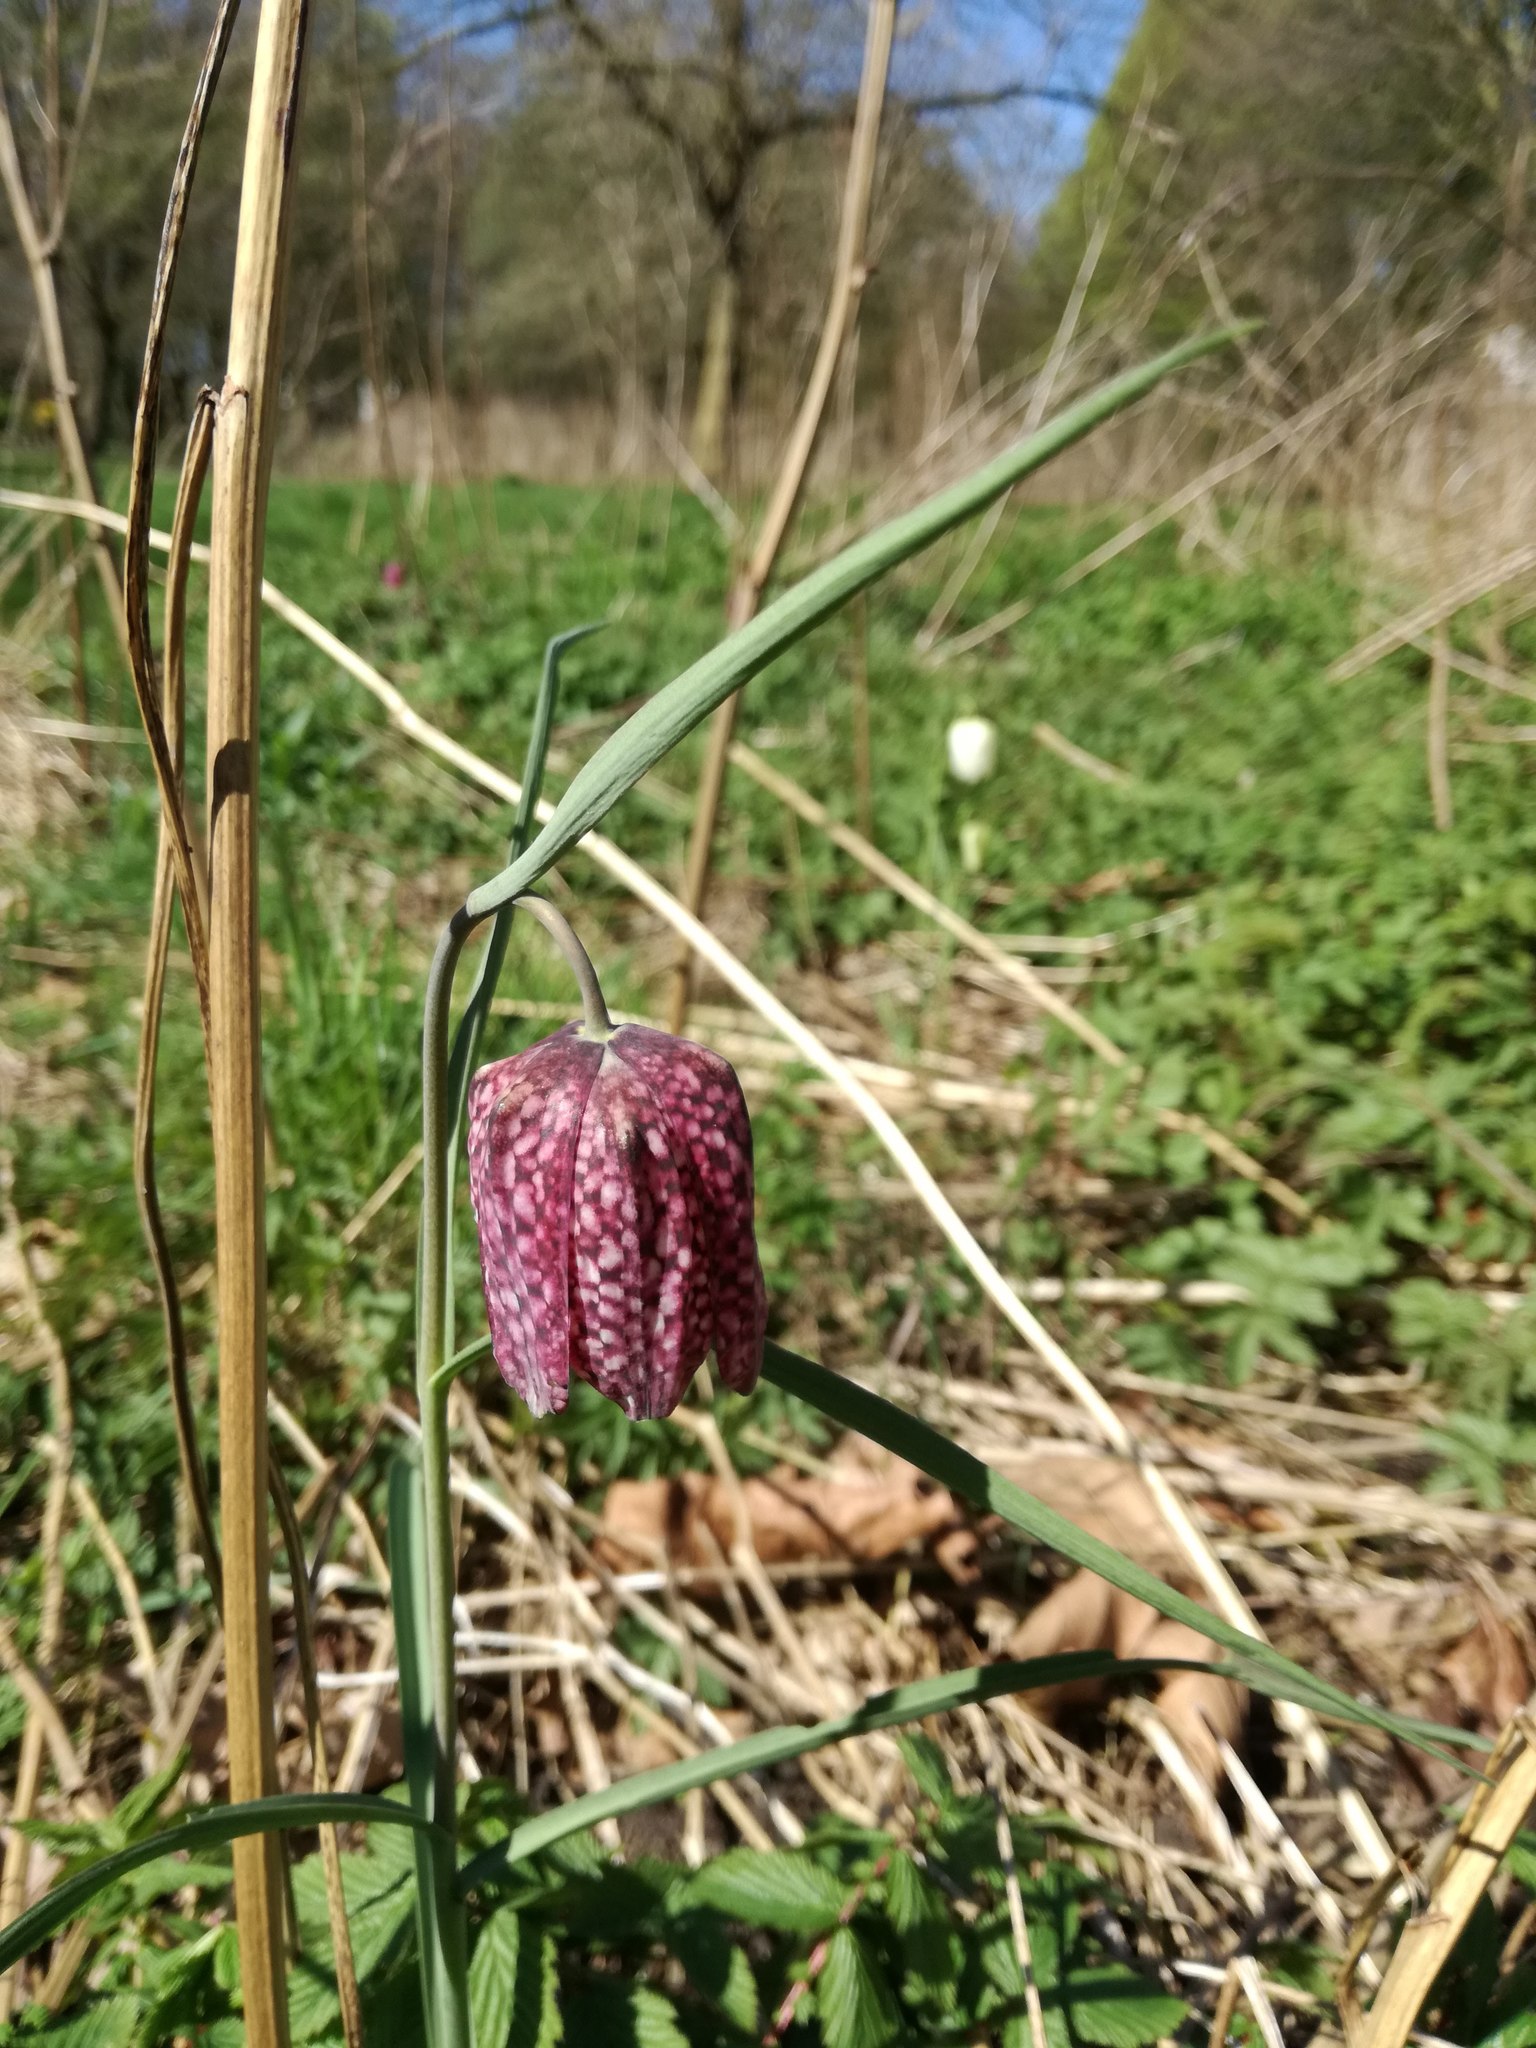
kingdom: Plantae
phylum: Tracheophyta
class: Liliopsida
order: Liliales
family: Liliaceae
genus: Fritillaria
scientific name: Fritillaria meleagris
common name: Fritillary
